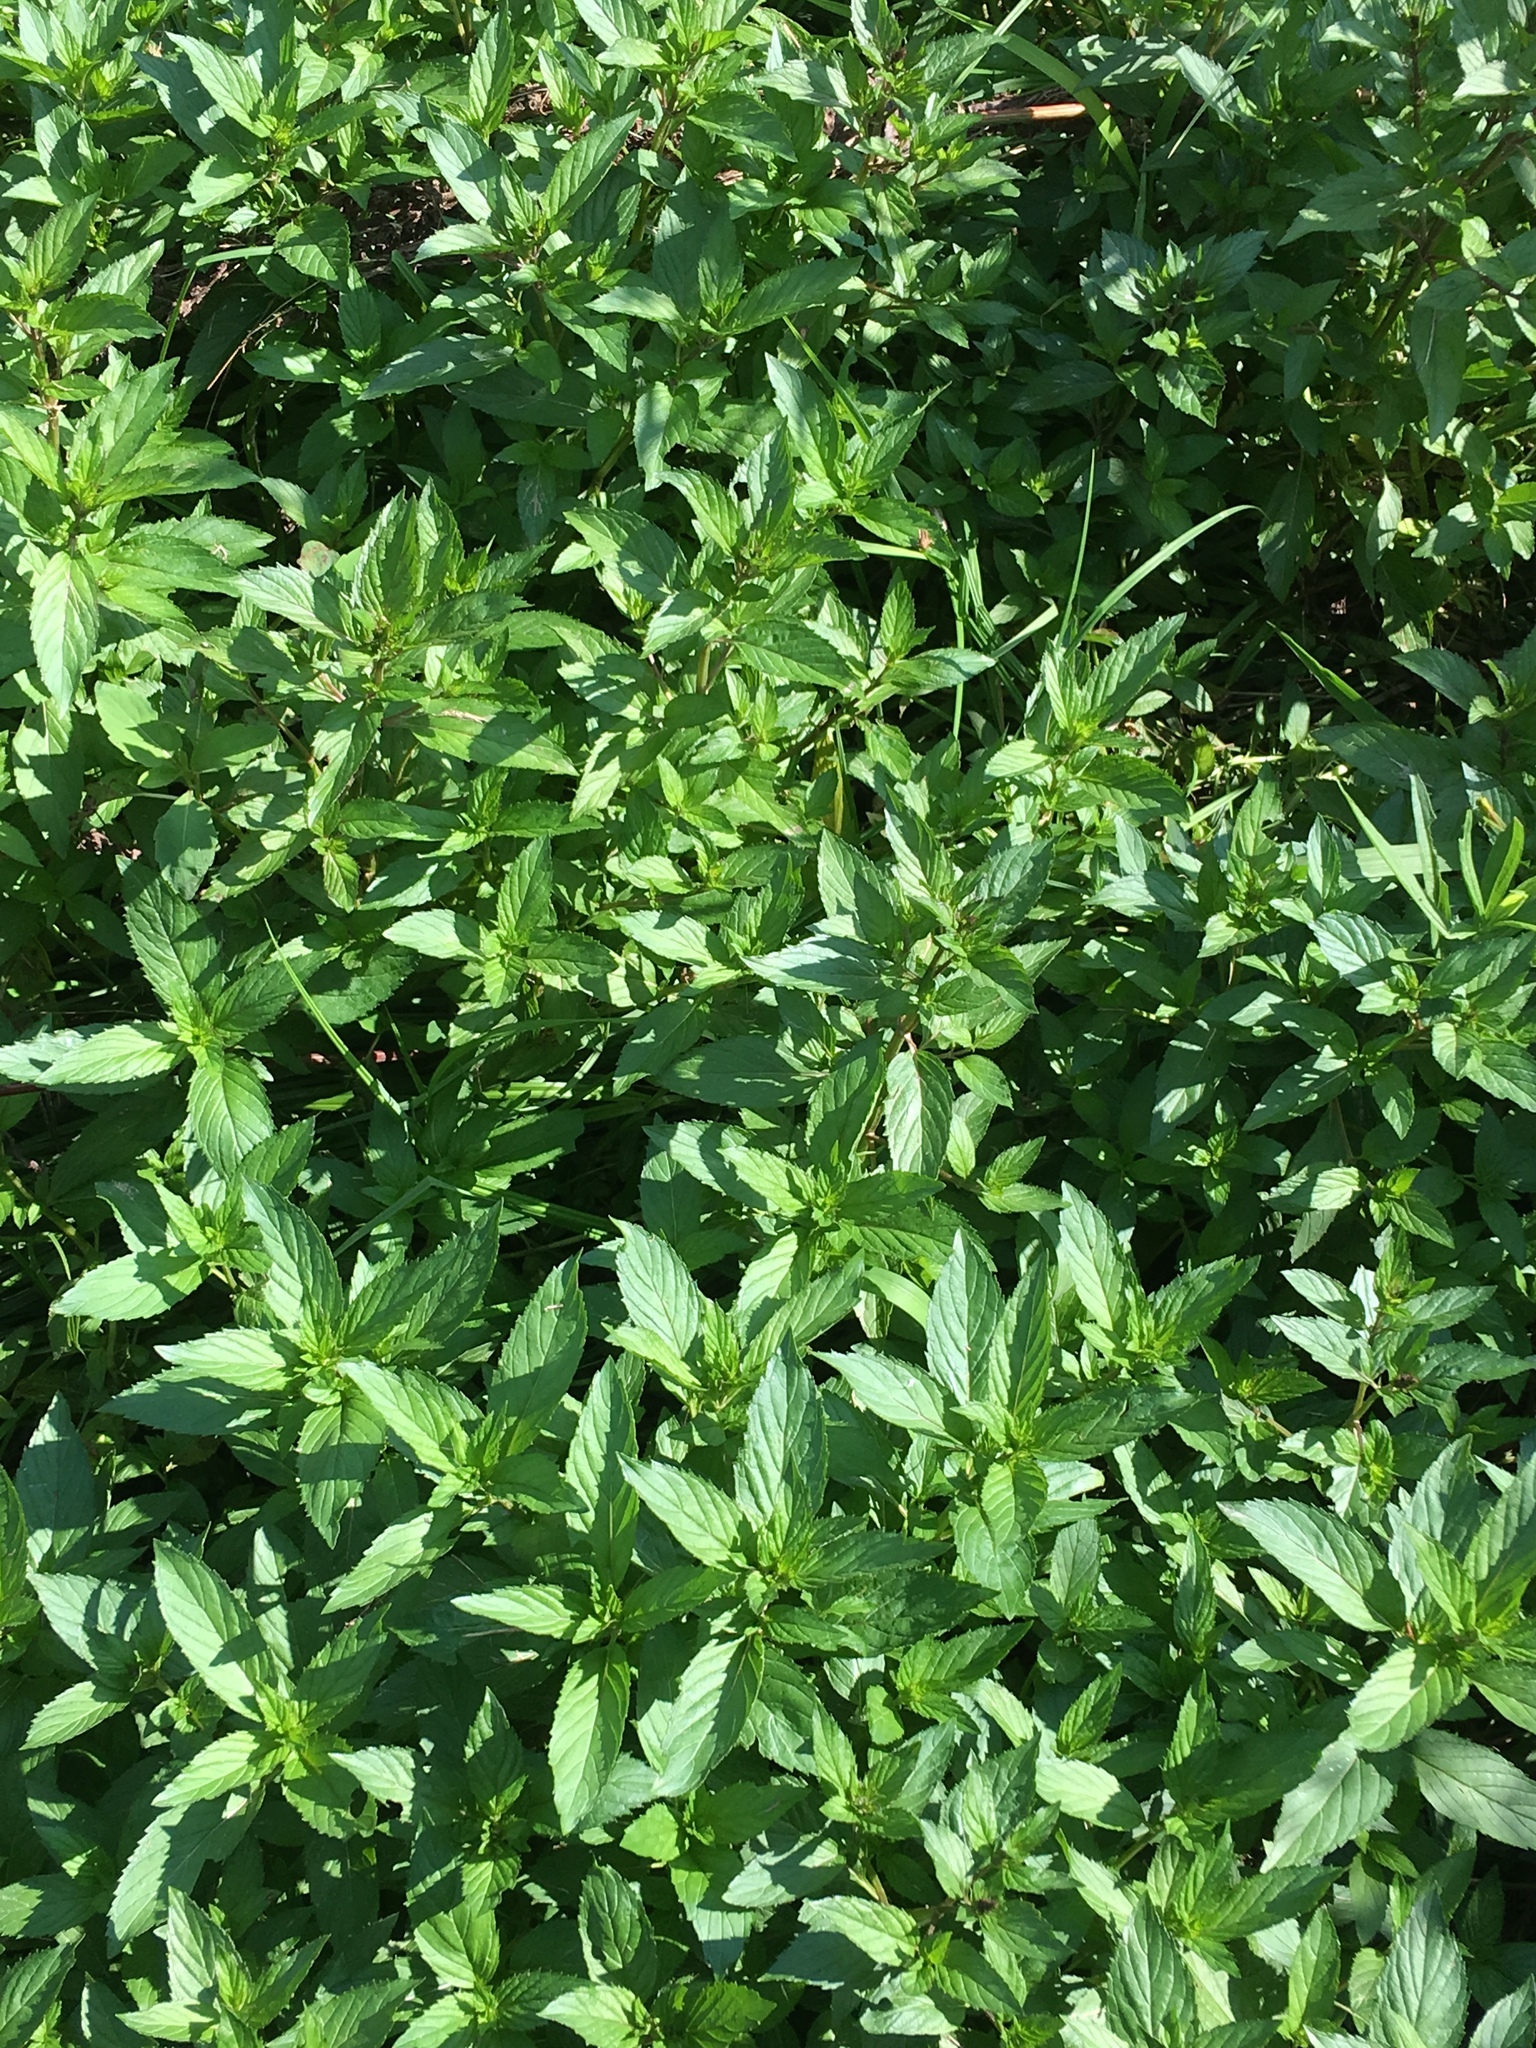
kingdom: Plantae
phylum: Tracheophyta
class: Magnoliopsida
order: Lamiales
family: Lamiaceae
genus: Mentha
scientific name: Mentha piperita
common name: Peppermint
